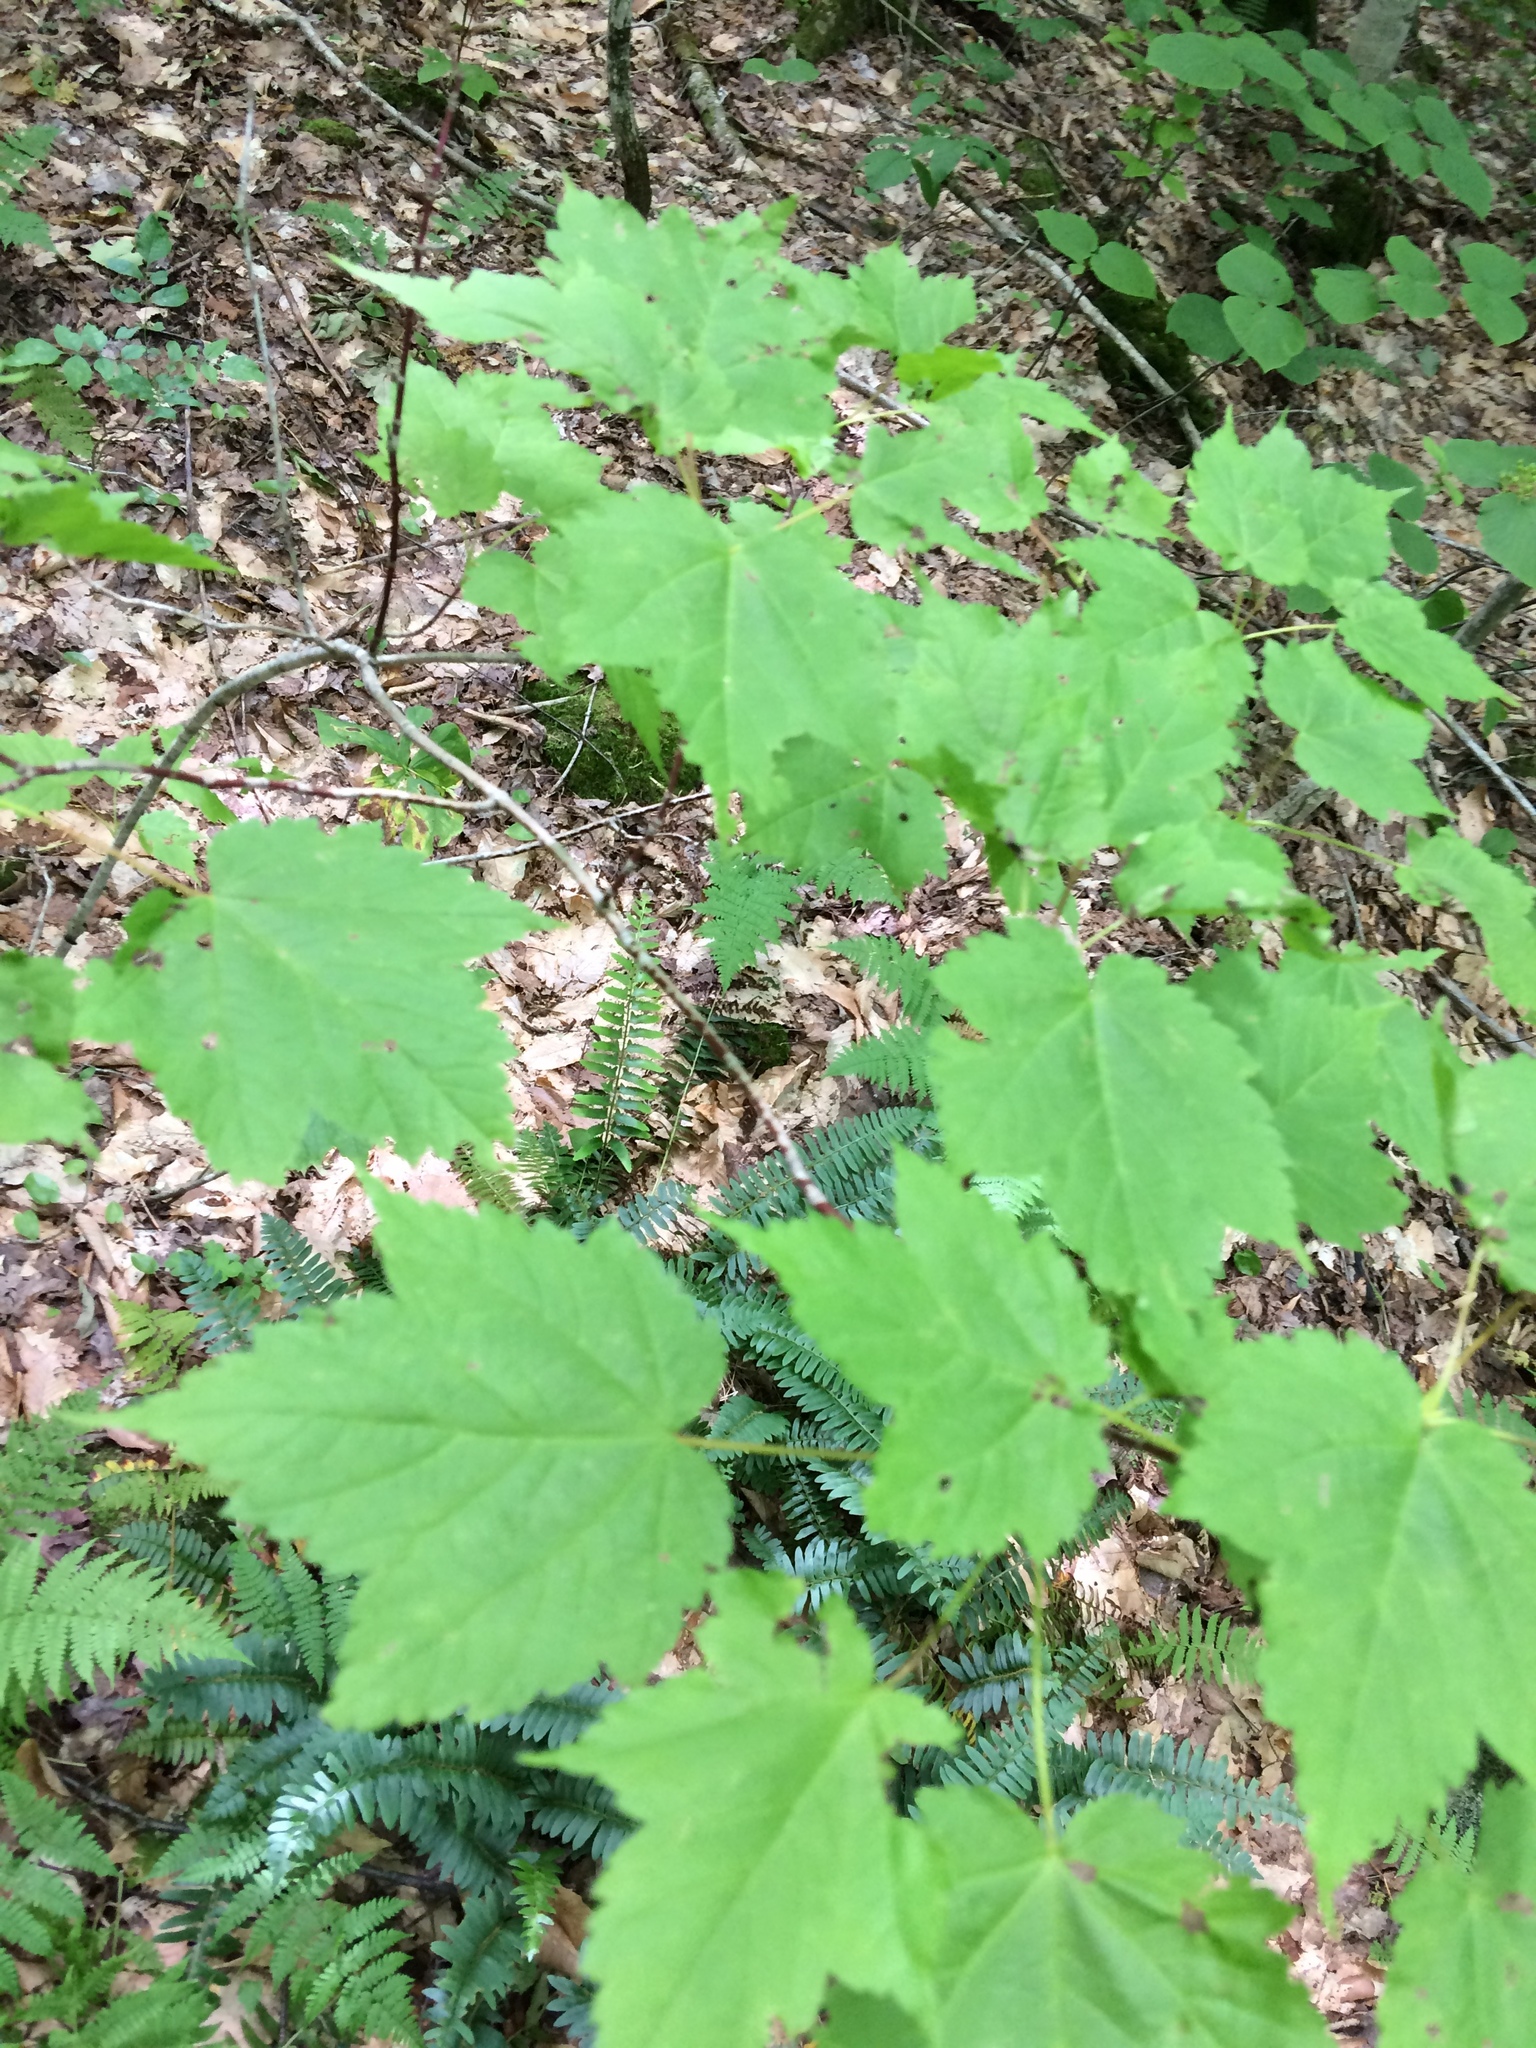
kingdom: Plantae
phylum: Tracheophyta
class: Magnoliopsida
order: Sapindales
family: Sapindaceae
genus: Acer
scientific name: Acer spicatum
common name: Mountain maple
